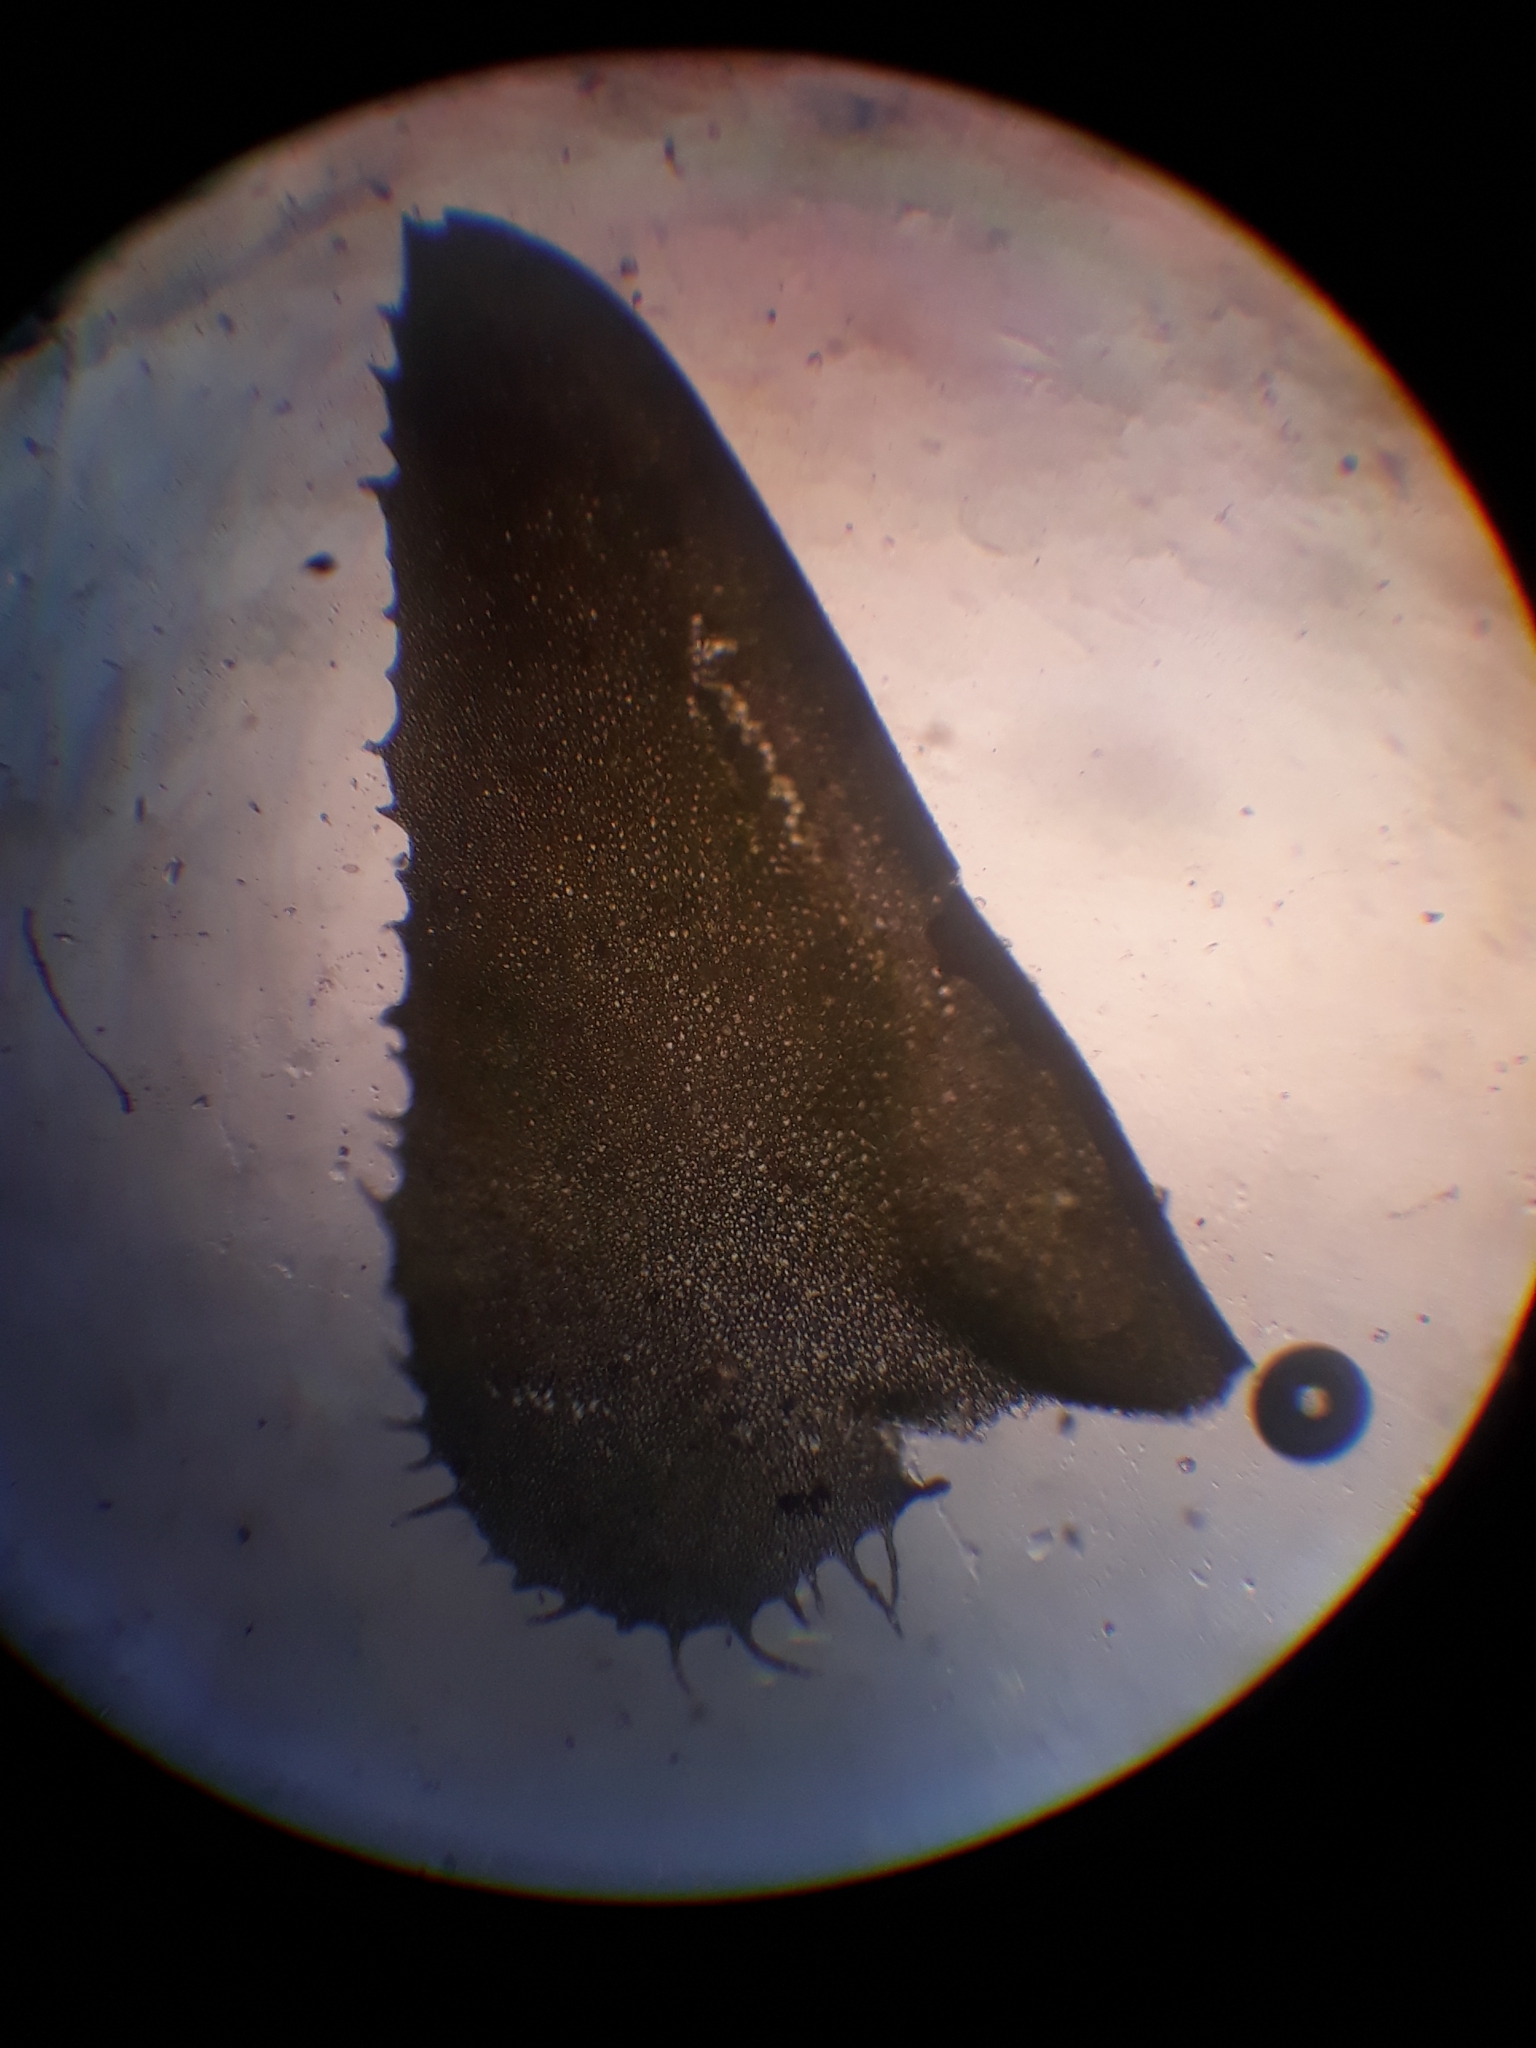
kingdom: Plantae
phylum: Marchantiophyta
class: Jungermanniopsida
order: Jungermanniales
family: Plagiochilaceae
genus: Plagiochila
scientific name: Plagiochila annotina
